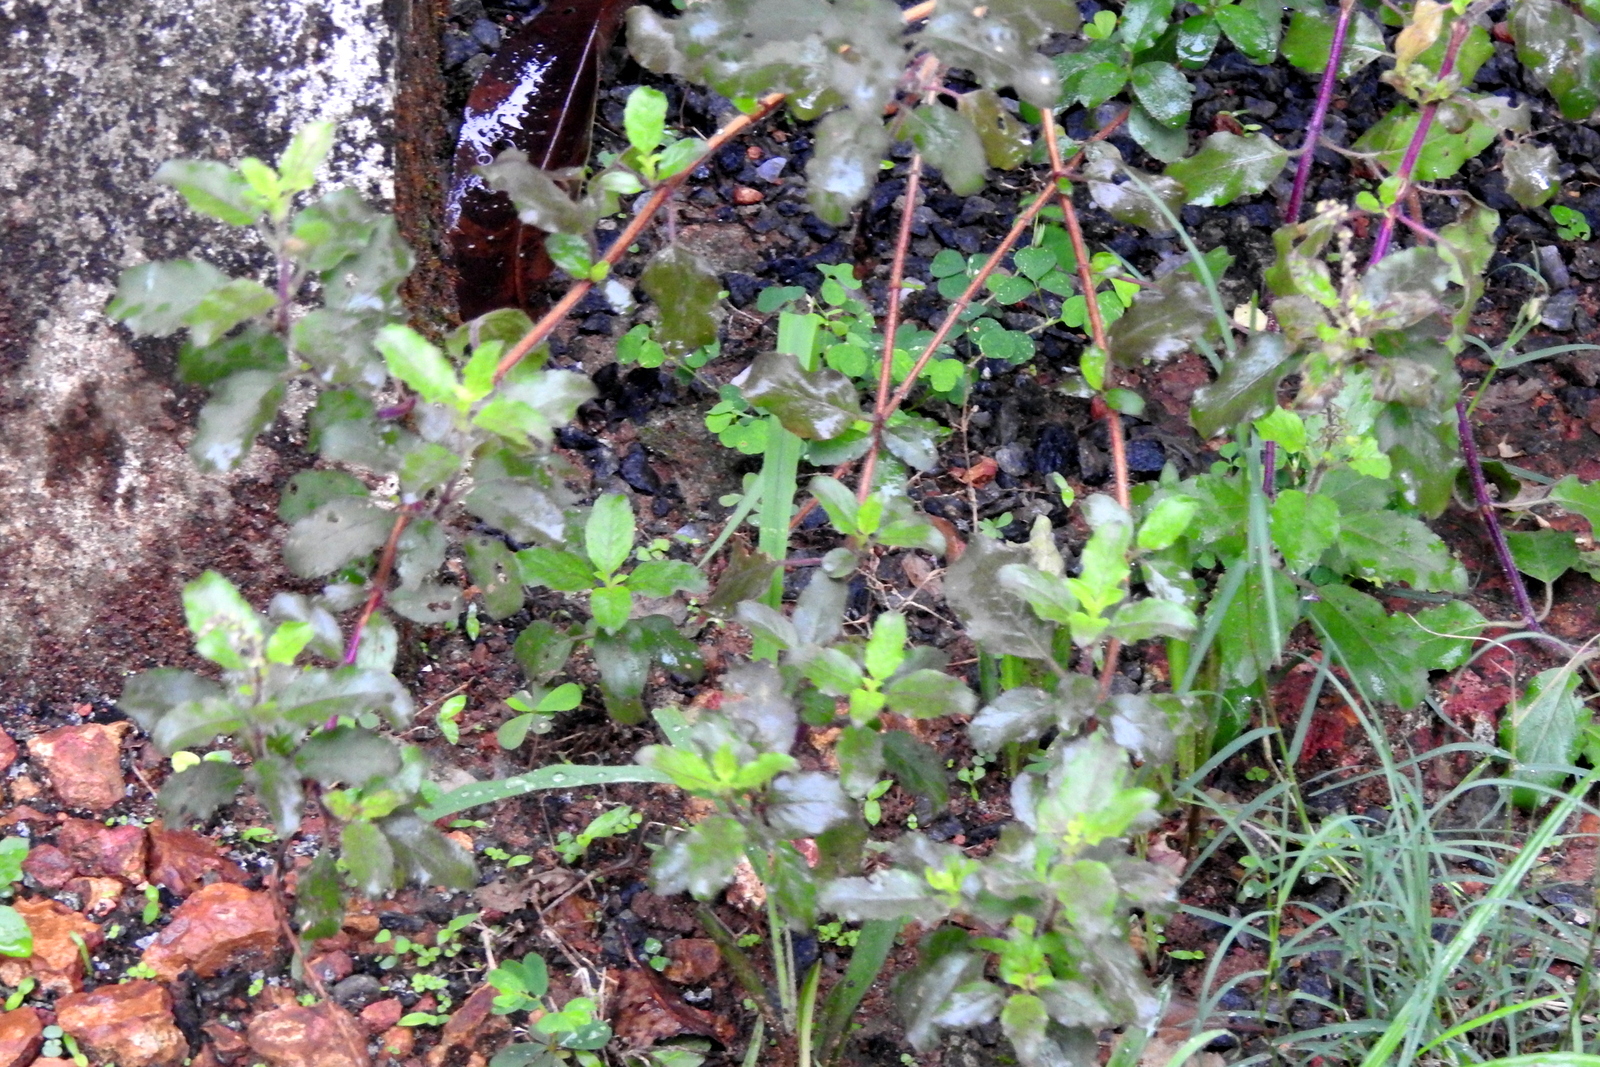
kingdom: Plantae
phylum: Tracheophyta
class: Magnoliopsida
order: Lamiales
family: Lamiaceae
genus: Ocimum
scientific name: Ocimum tenuiflorum
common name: Sacred basil
